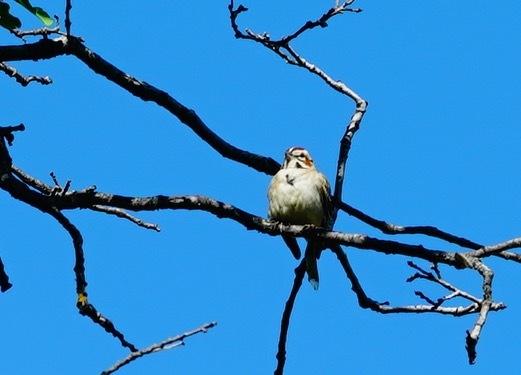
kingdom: Animalia
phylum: Chordata
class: Aves
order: Passeriformes
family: Passerellidae
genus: Chondestes
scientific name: Chondestes grammacus
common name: Lark sparrow
